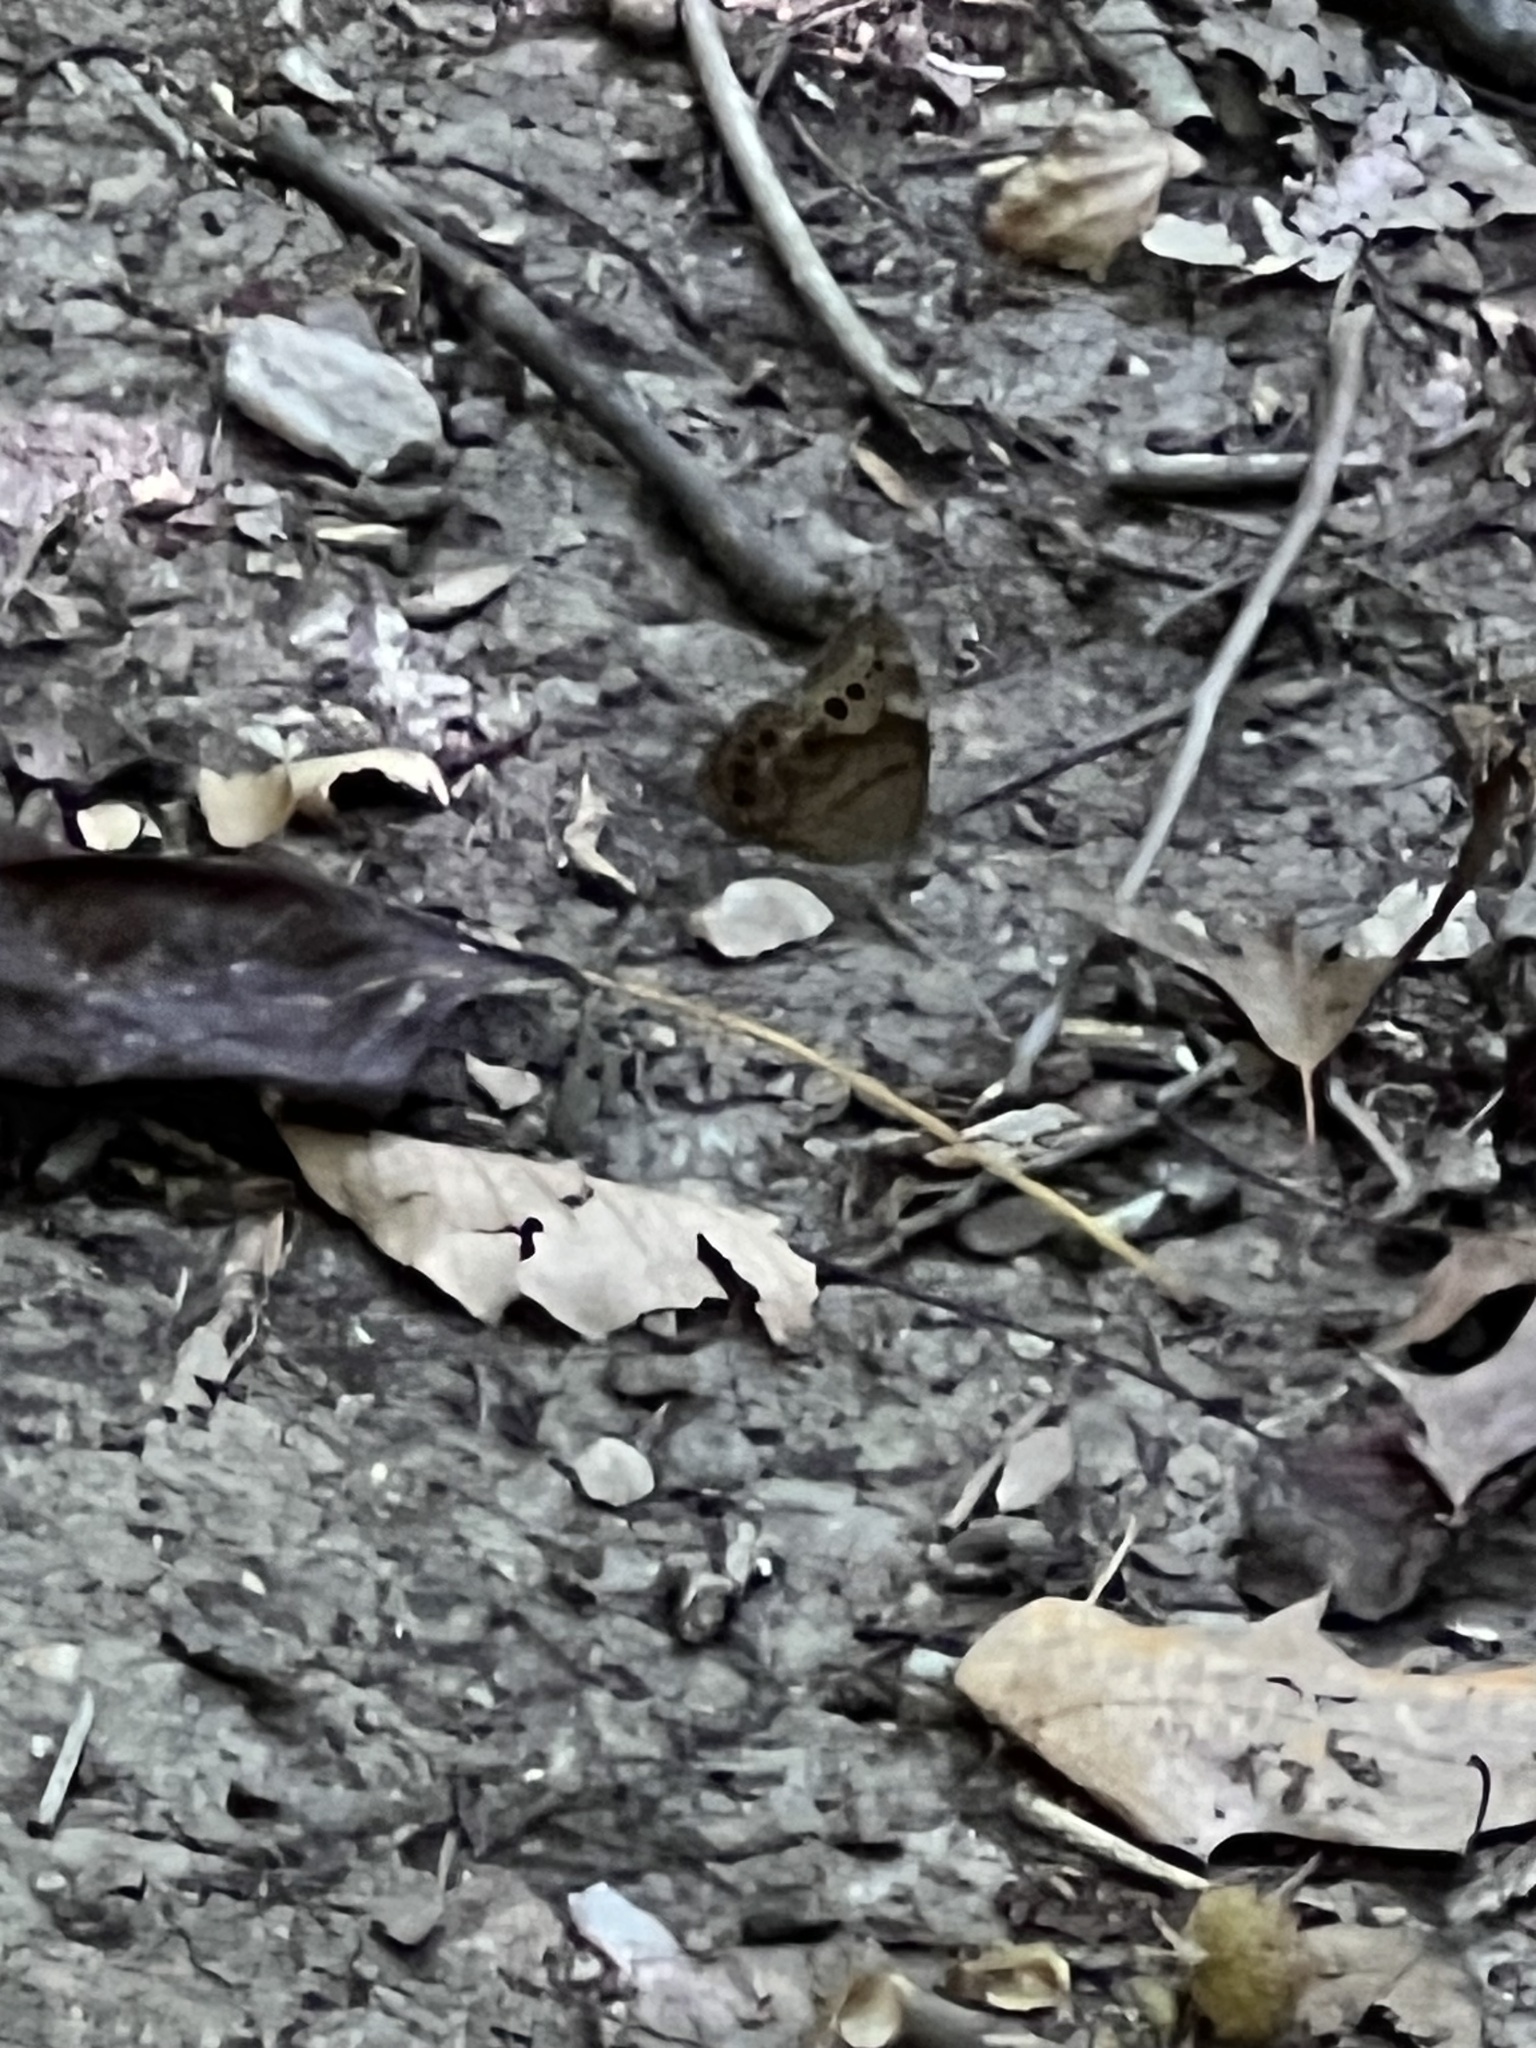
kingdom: Animalia
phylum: Arthropoda
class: Insecta
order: Lepidoptera
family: Nymphalidae
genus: Lethe
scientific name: Lethe anthedon
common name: Northern pearly-eye
